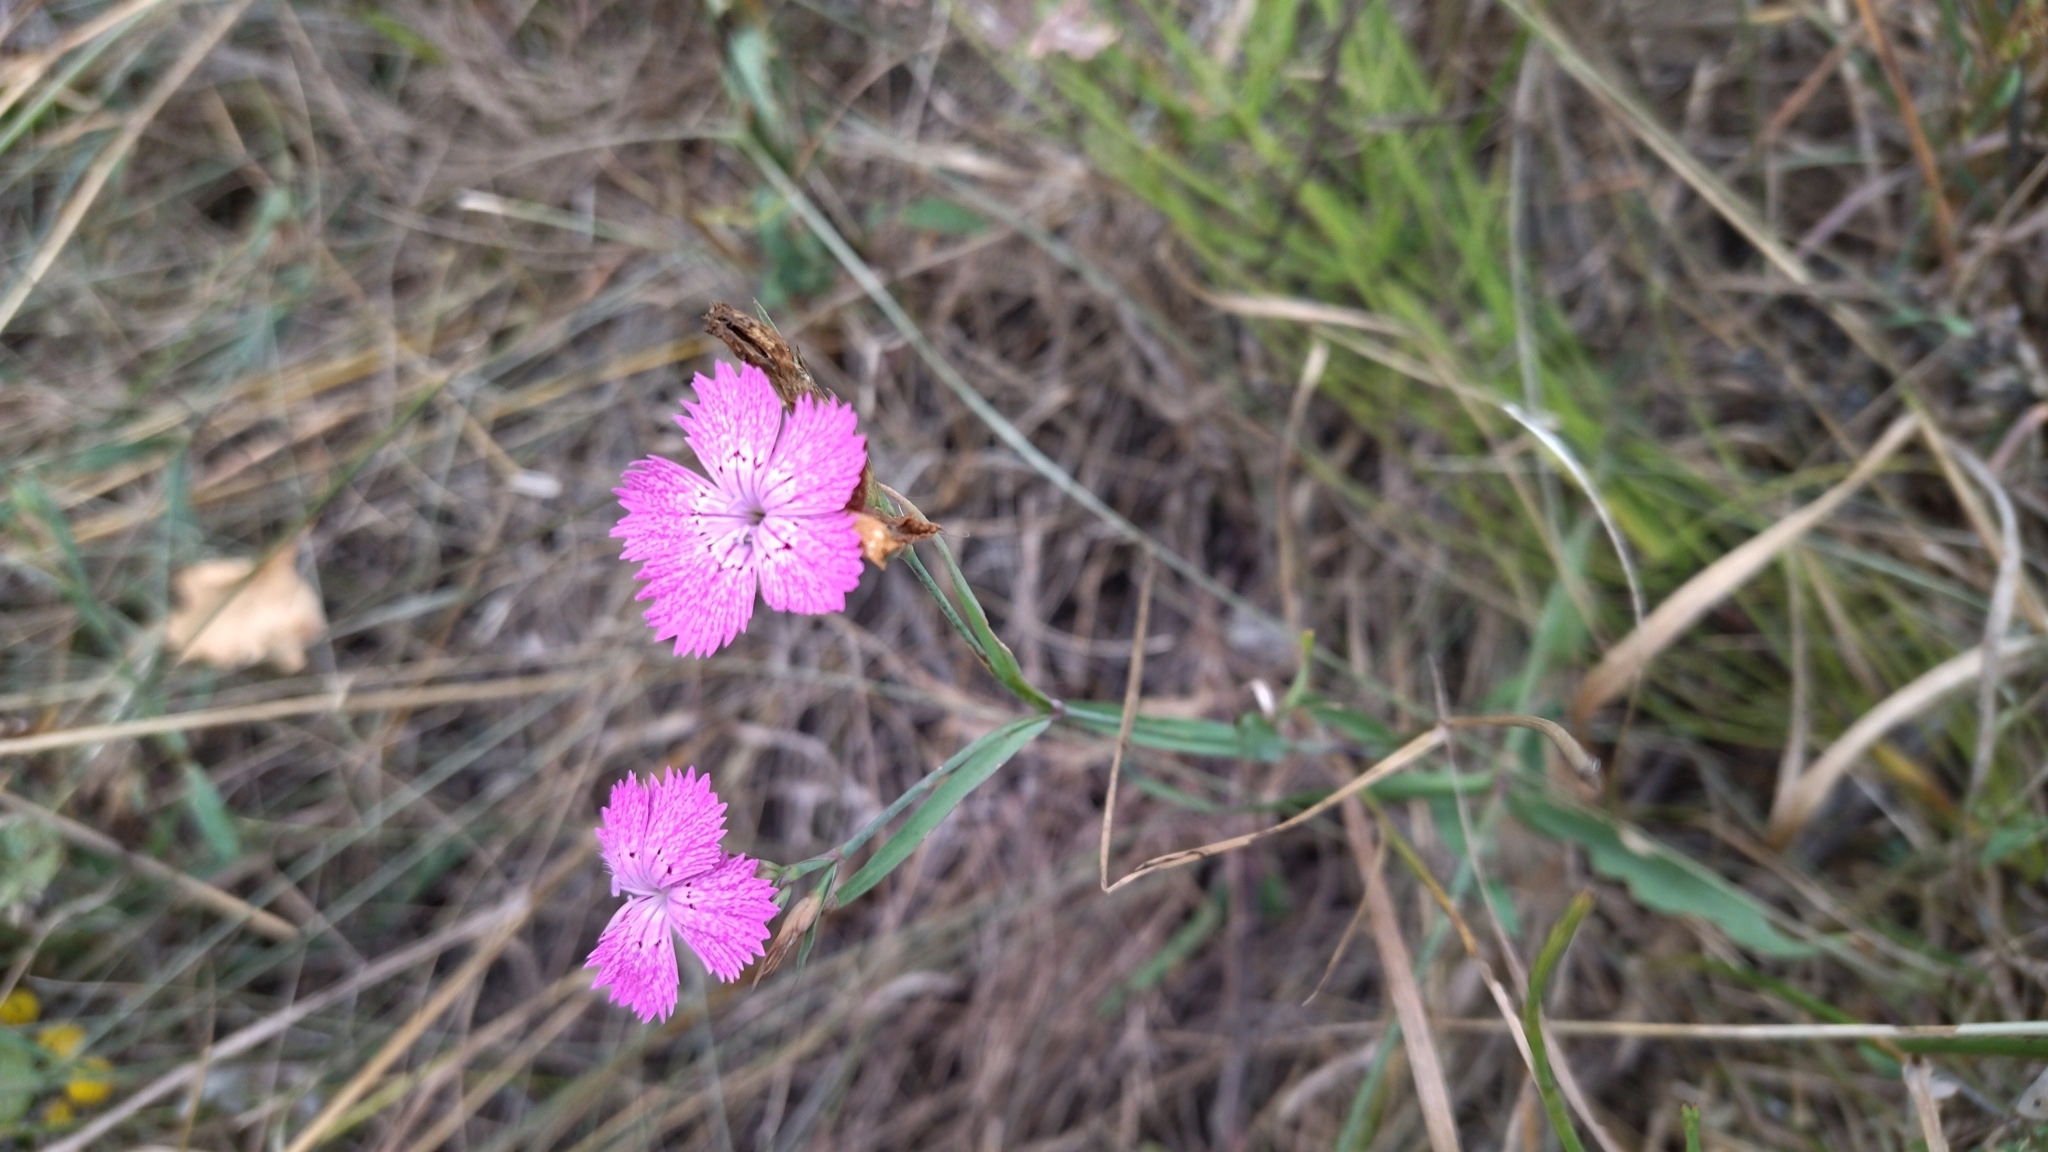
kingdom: Plantae
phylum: Tracheophyta
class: Magnoliopsida
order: Caryophyllales
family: Caryophyllaceae
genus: Dianthus
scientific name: Dianthus chinensis
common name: Rainbow pink
